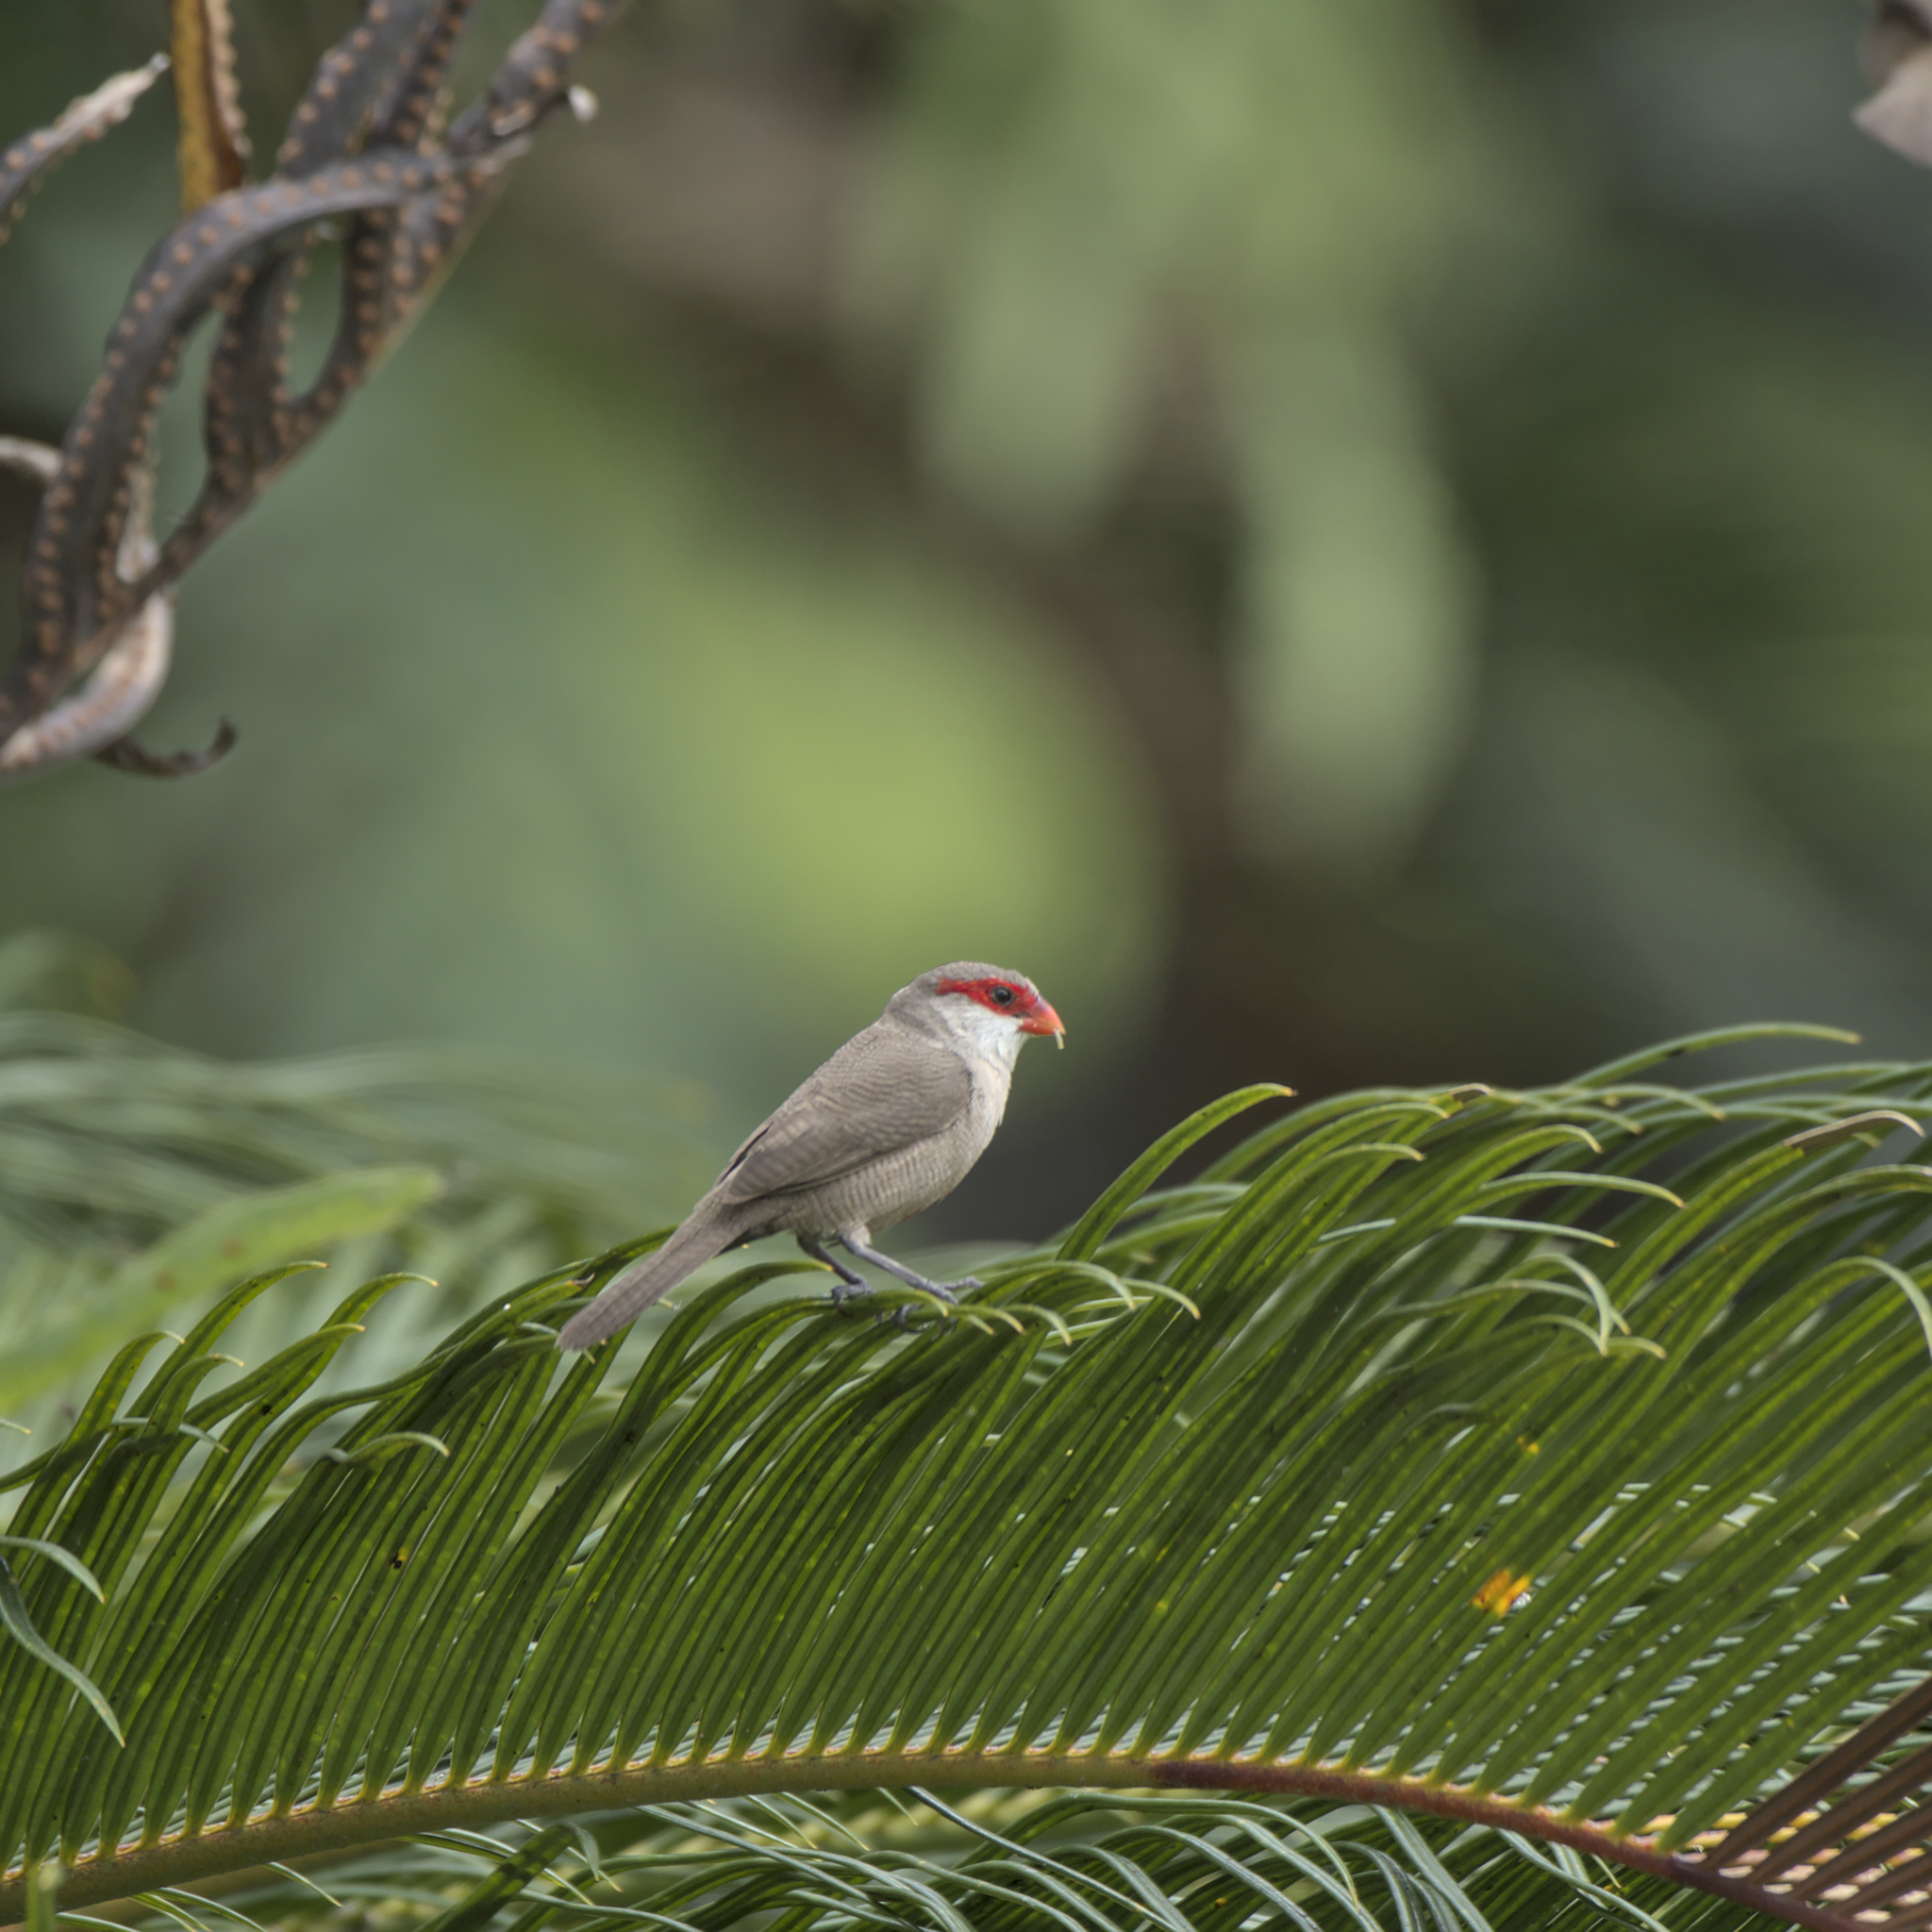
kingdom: Animalia
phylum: Chordata
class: Aves
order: Passeriformes
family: Estrildidae
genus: Estrilda
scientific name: Estrilda astrild
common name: Common waxbill
